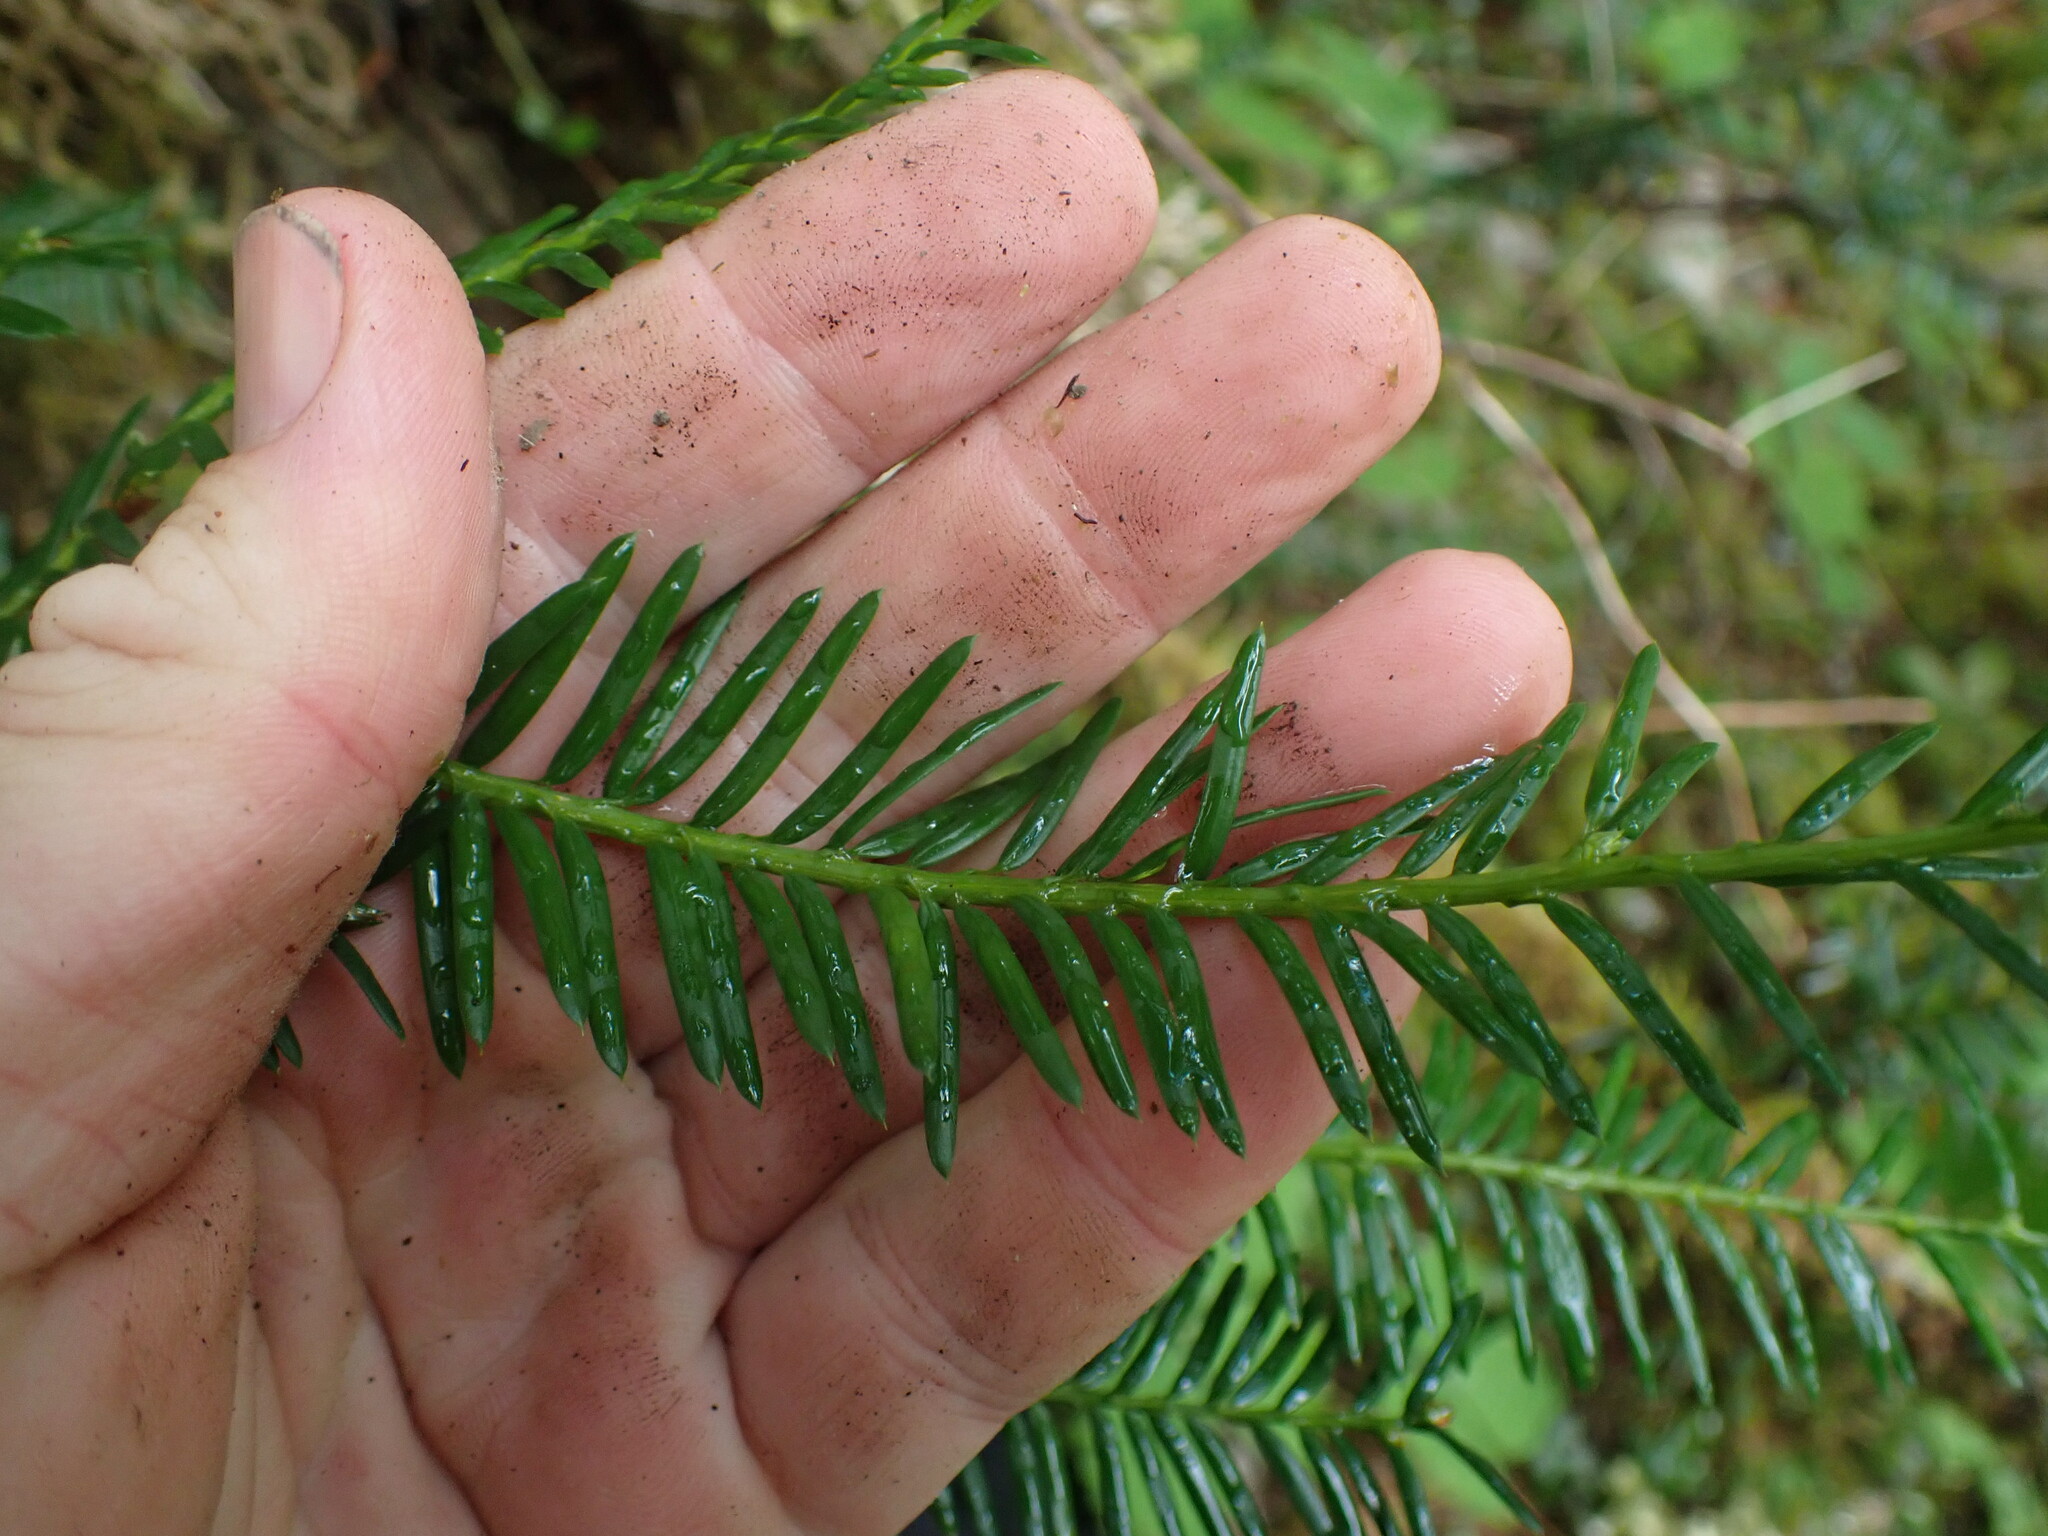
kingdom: Plantae
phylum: Tracheophyta
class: Pinopsida
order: Pinales
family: Taxaceae
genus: Taxus
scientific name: Taxus brevifolia
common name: Pacific yew
